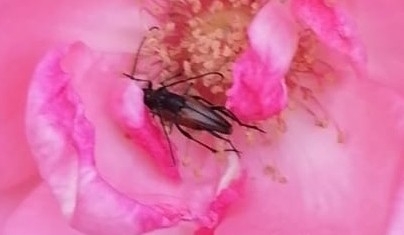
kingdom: Animalia
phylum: Arthropoda
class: Insecta
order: Coleoptera
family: Cerambycidae
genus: Stenurella
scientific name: Stenurella melanura
